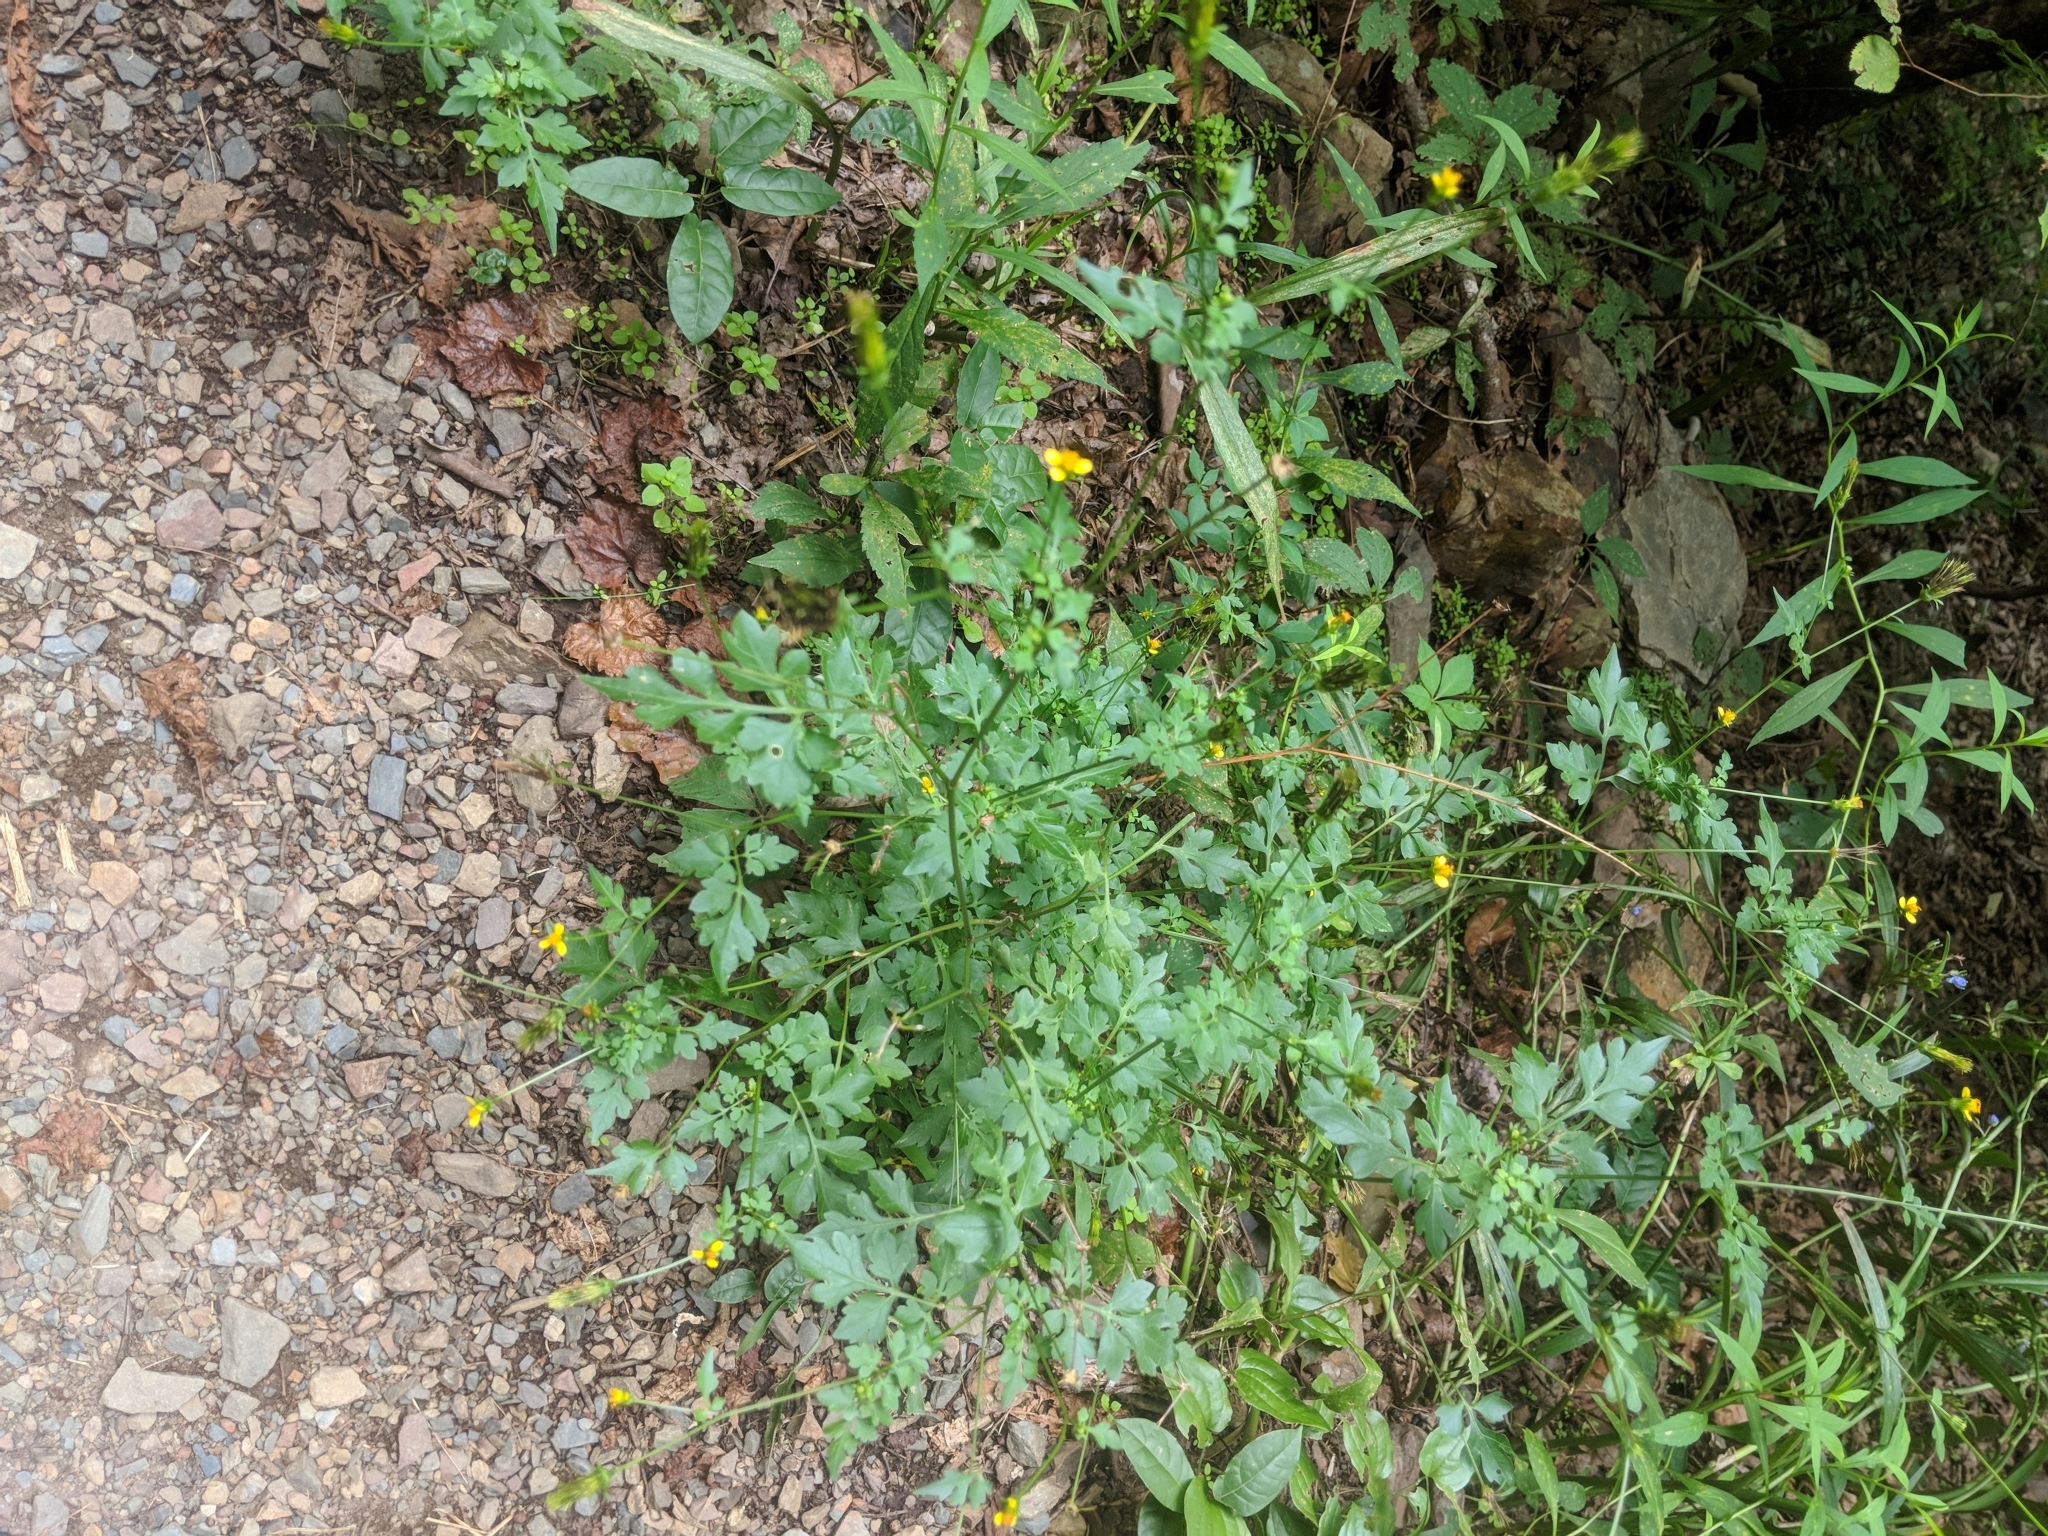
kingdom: Plantae
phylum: Tracheophyta
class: Magnoliopsida
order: Asterales
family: Asteraceae
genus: Bidens
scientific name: Bidens bipinnata
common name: Spanish-needles
